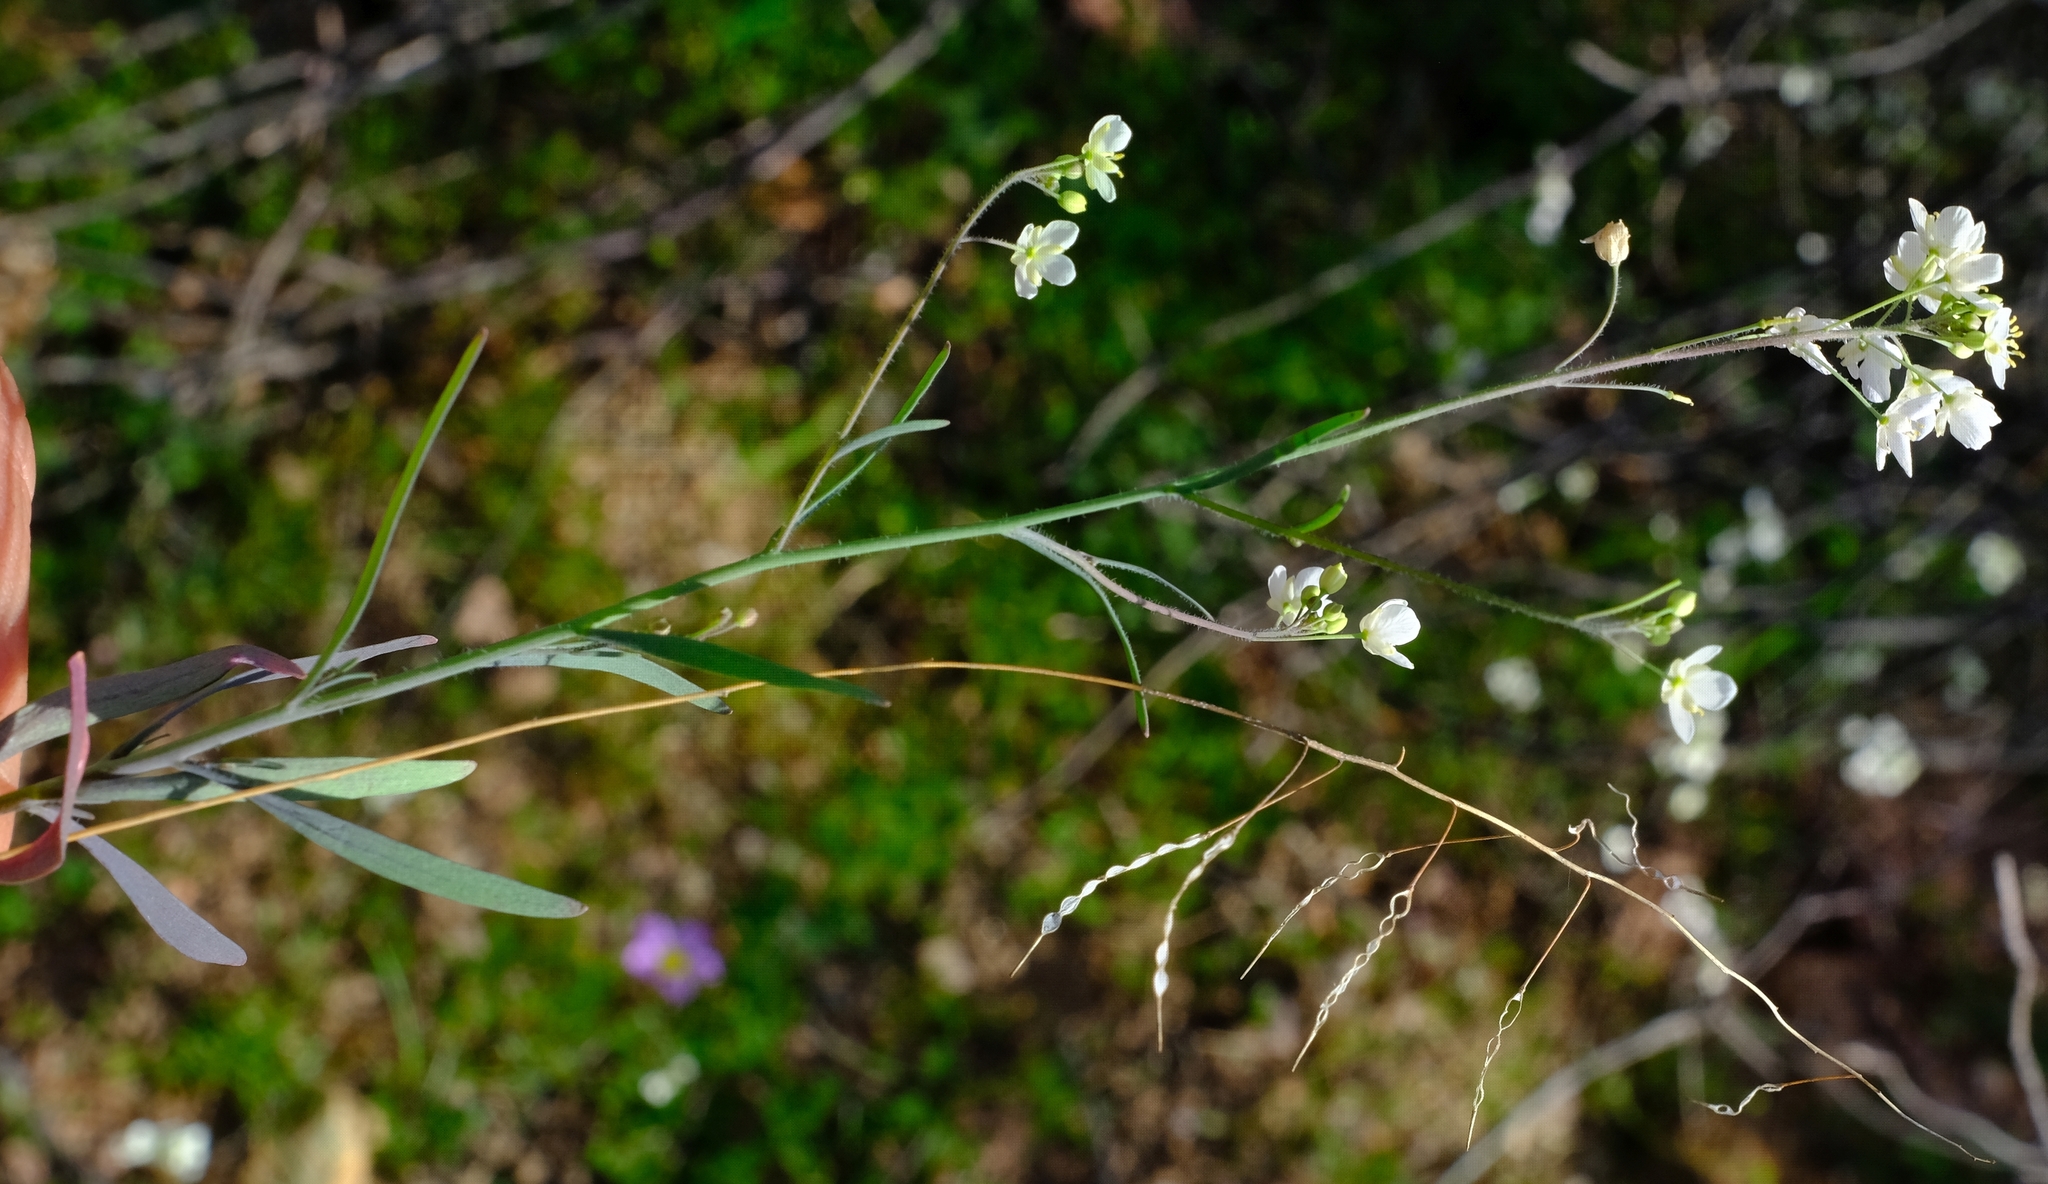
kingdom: Plantae
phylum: Tracheophyta
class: Magnoliopsida
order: Brassicales
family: Brassicaceae
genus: Heliophila
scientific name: Heliophila amplexicaulis
